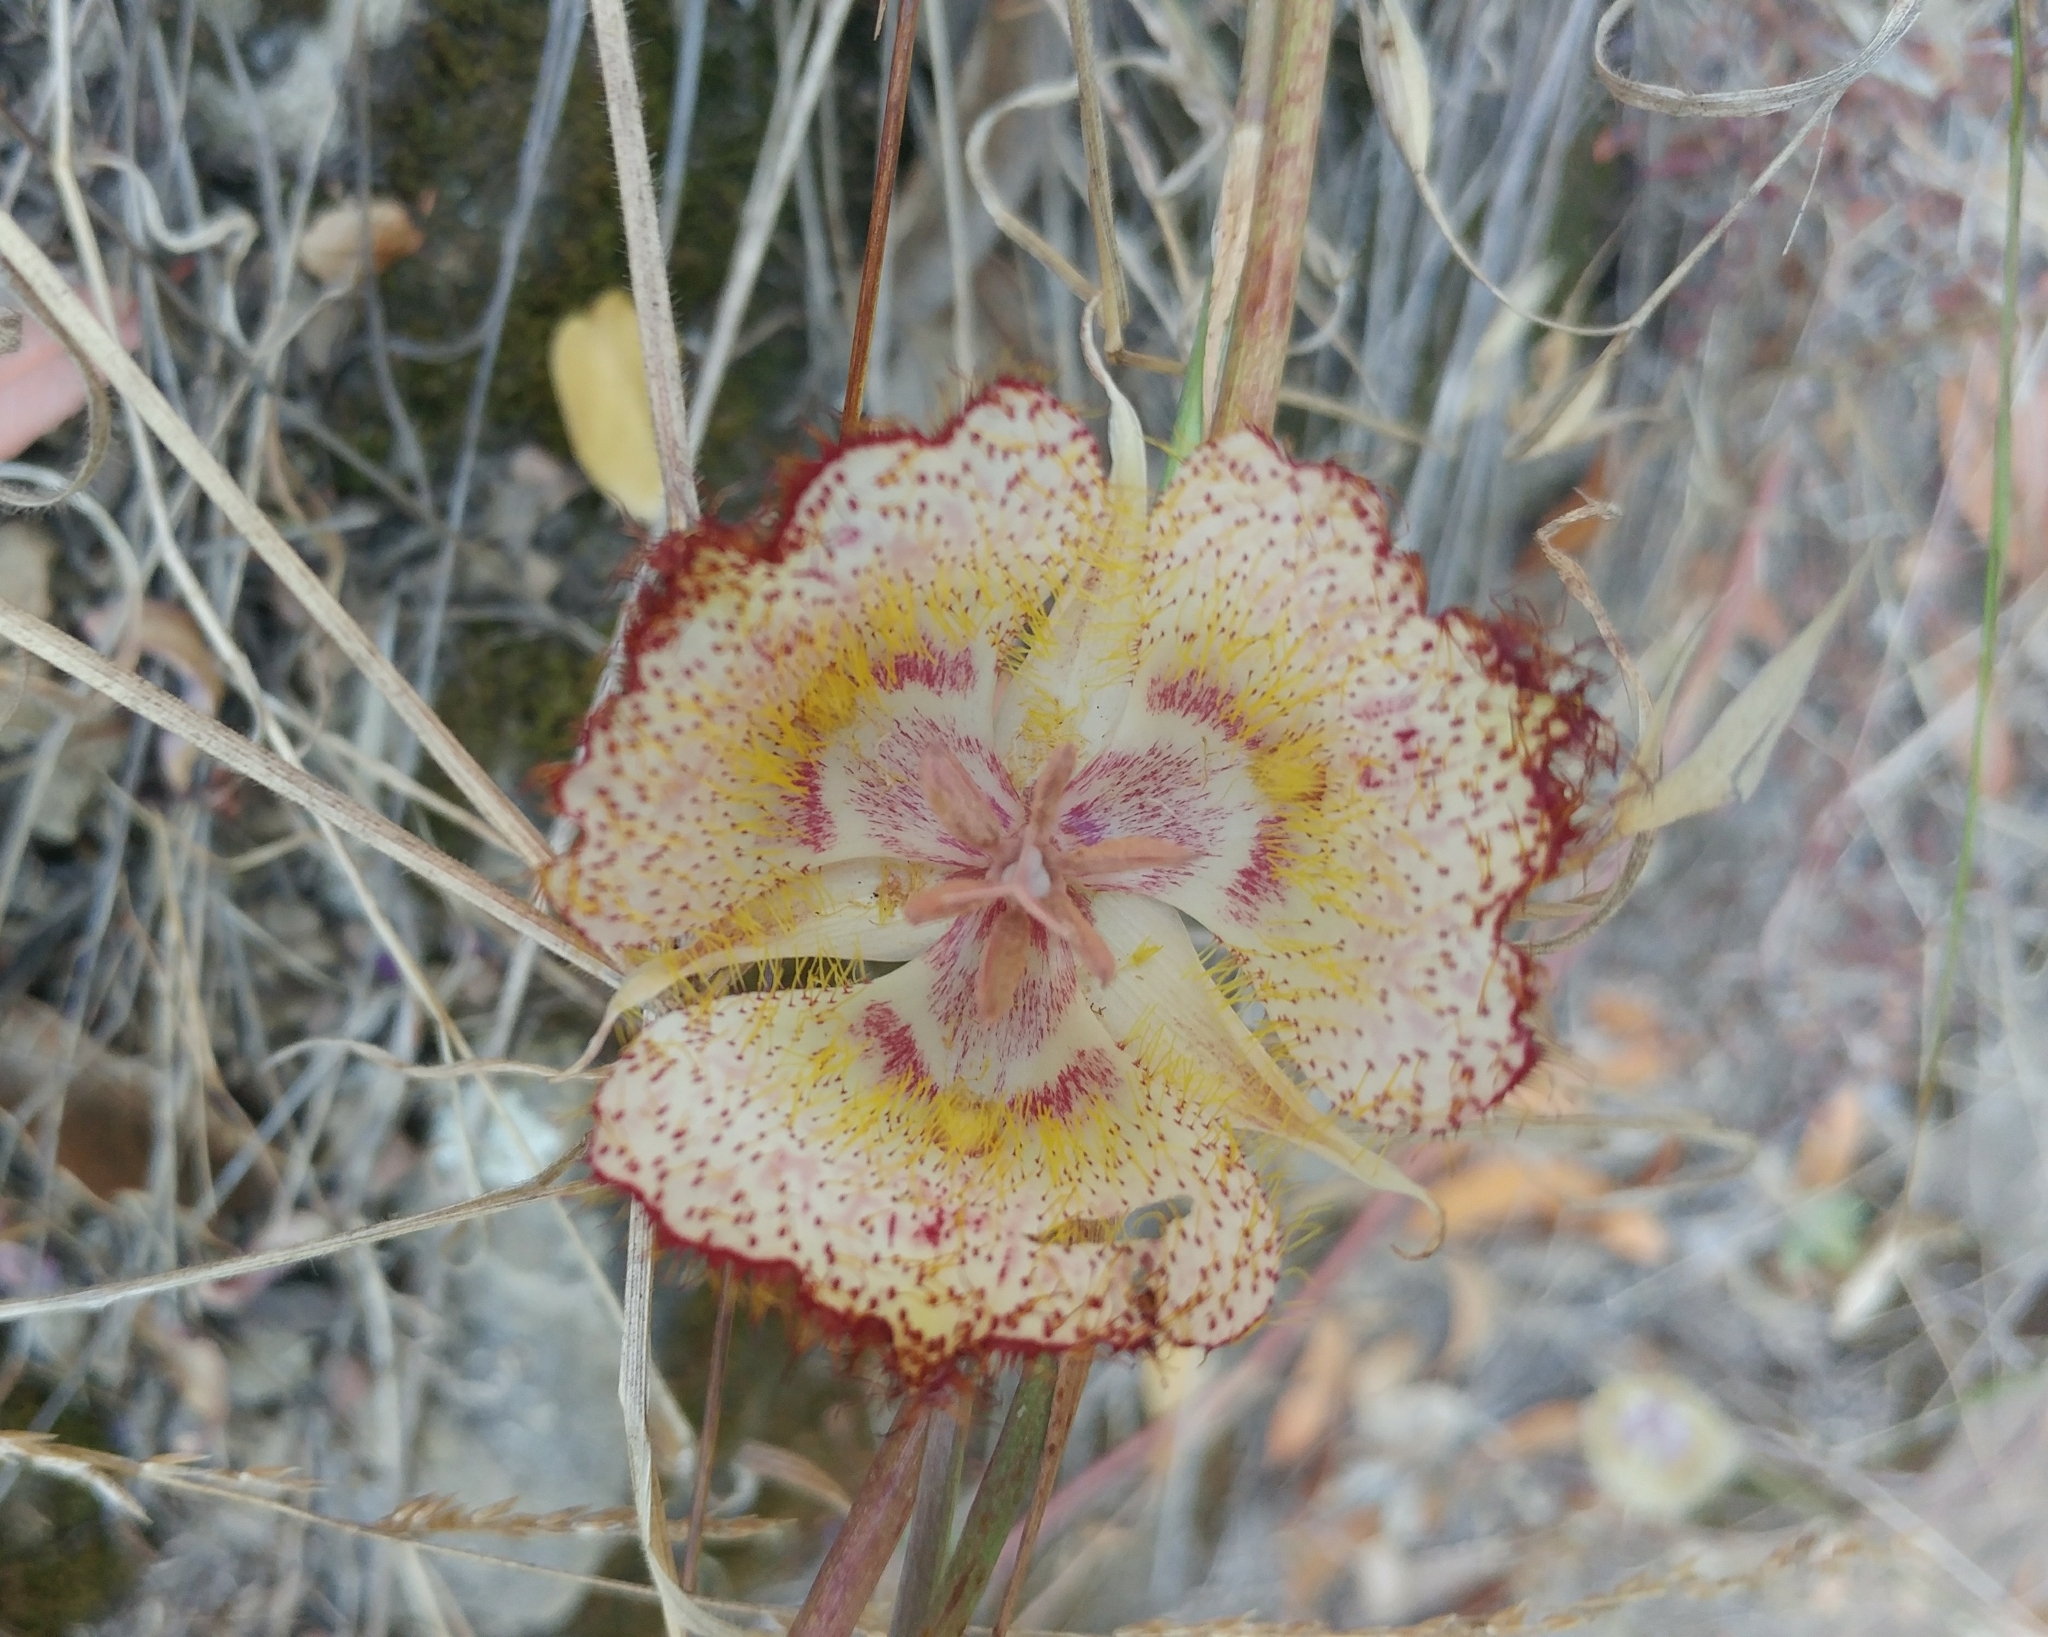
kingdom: Plantae
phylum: Tracheophyta
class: Liliopsida
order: Liliales
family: Liliaceae
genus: Calochortus
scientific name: Calochortus fimbriatus
